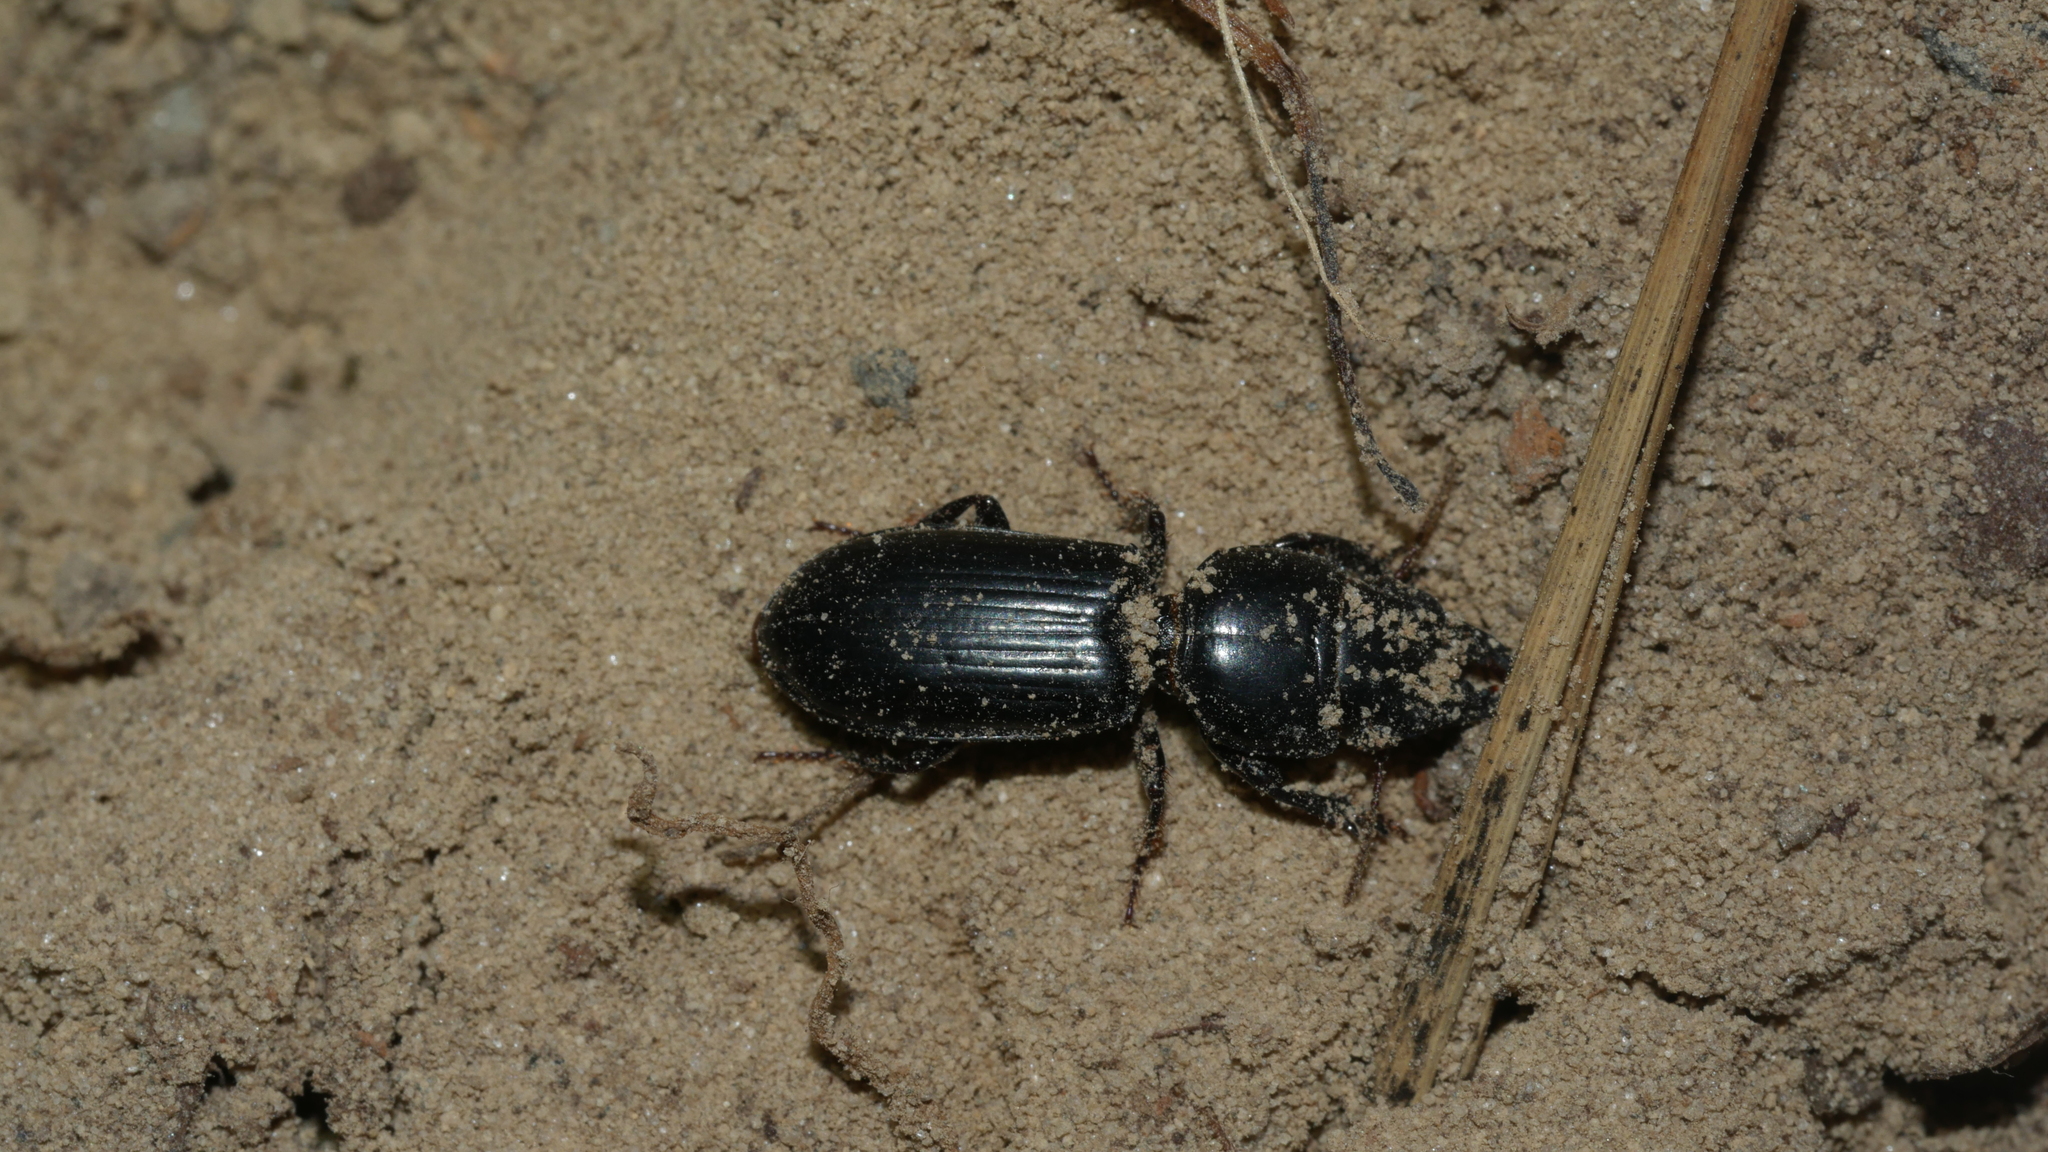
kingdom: Animalia
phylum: Arthropoda
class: Insecta
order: Coleoptera
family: Carabidae
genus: Scarites
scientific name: Scarites subterraneus
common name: Big-headed ground beetle
